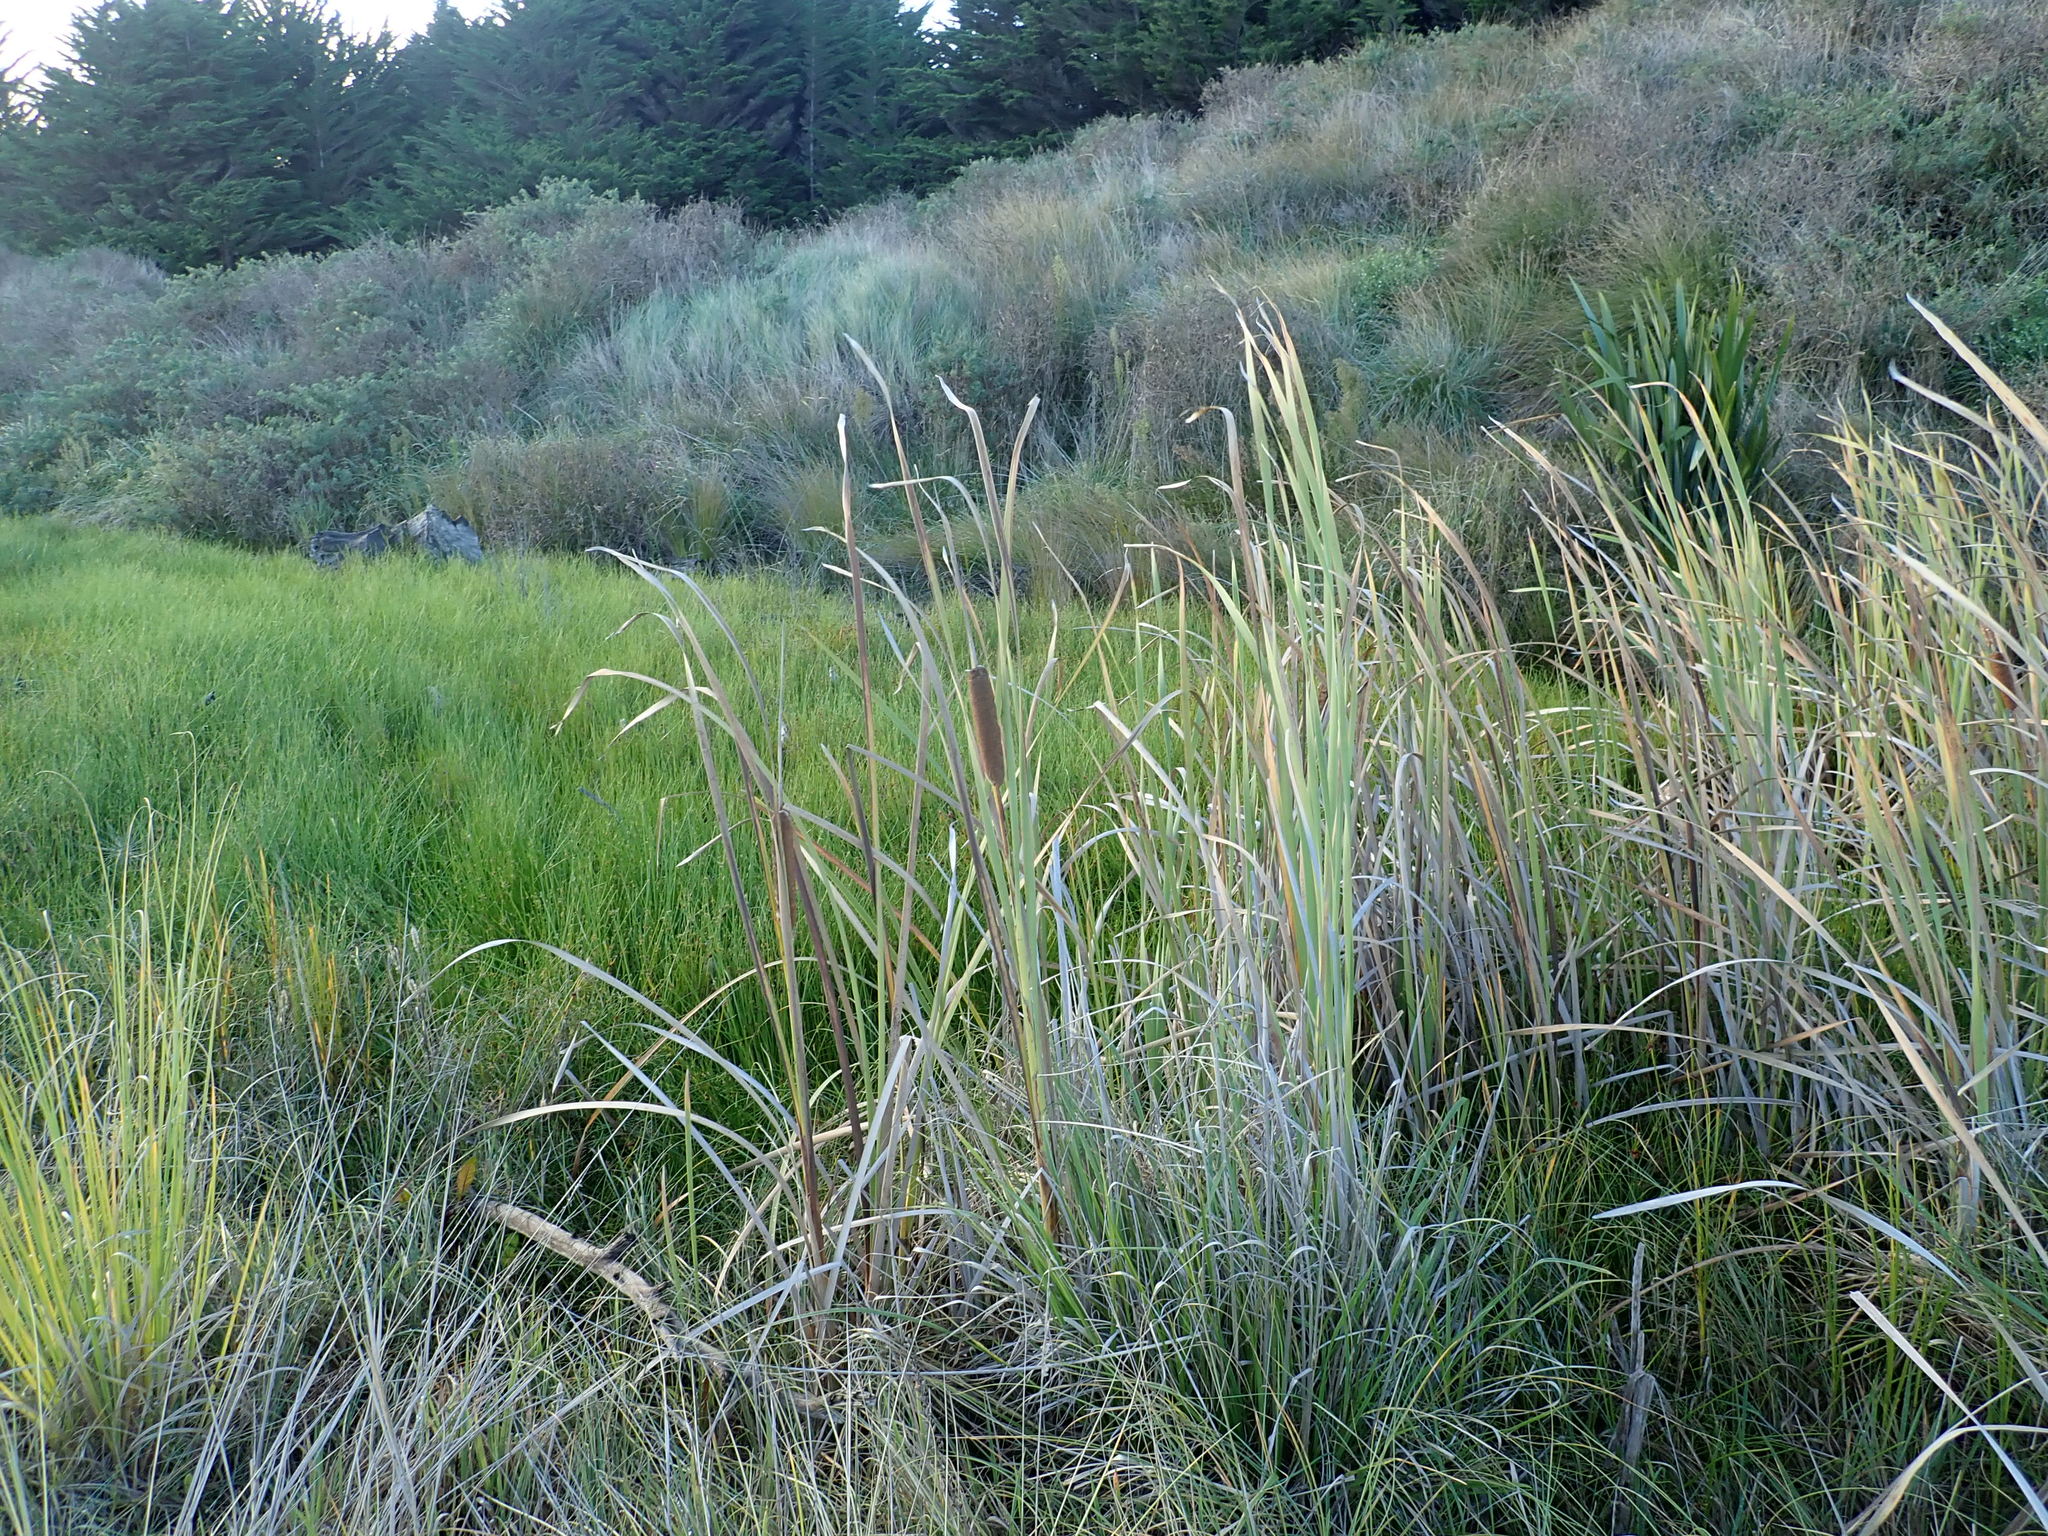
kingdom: Plantae
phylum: Tracheophyta
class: Liliopsida
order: Poales
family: Typhaceae
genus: Typha
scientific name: Typha orientalis
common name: Bullrush
